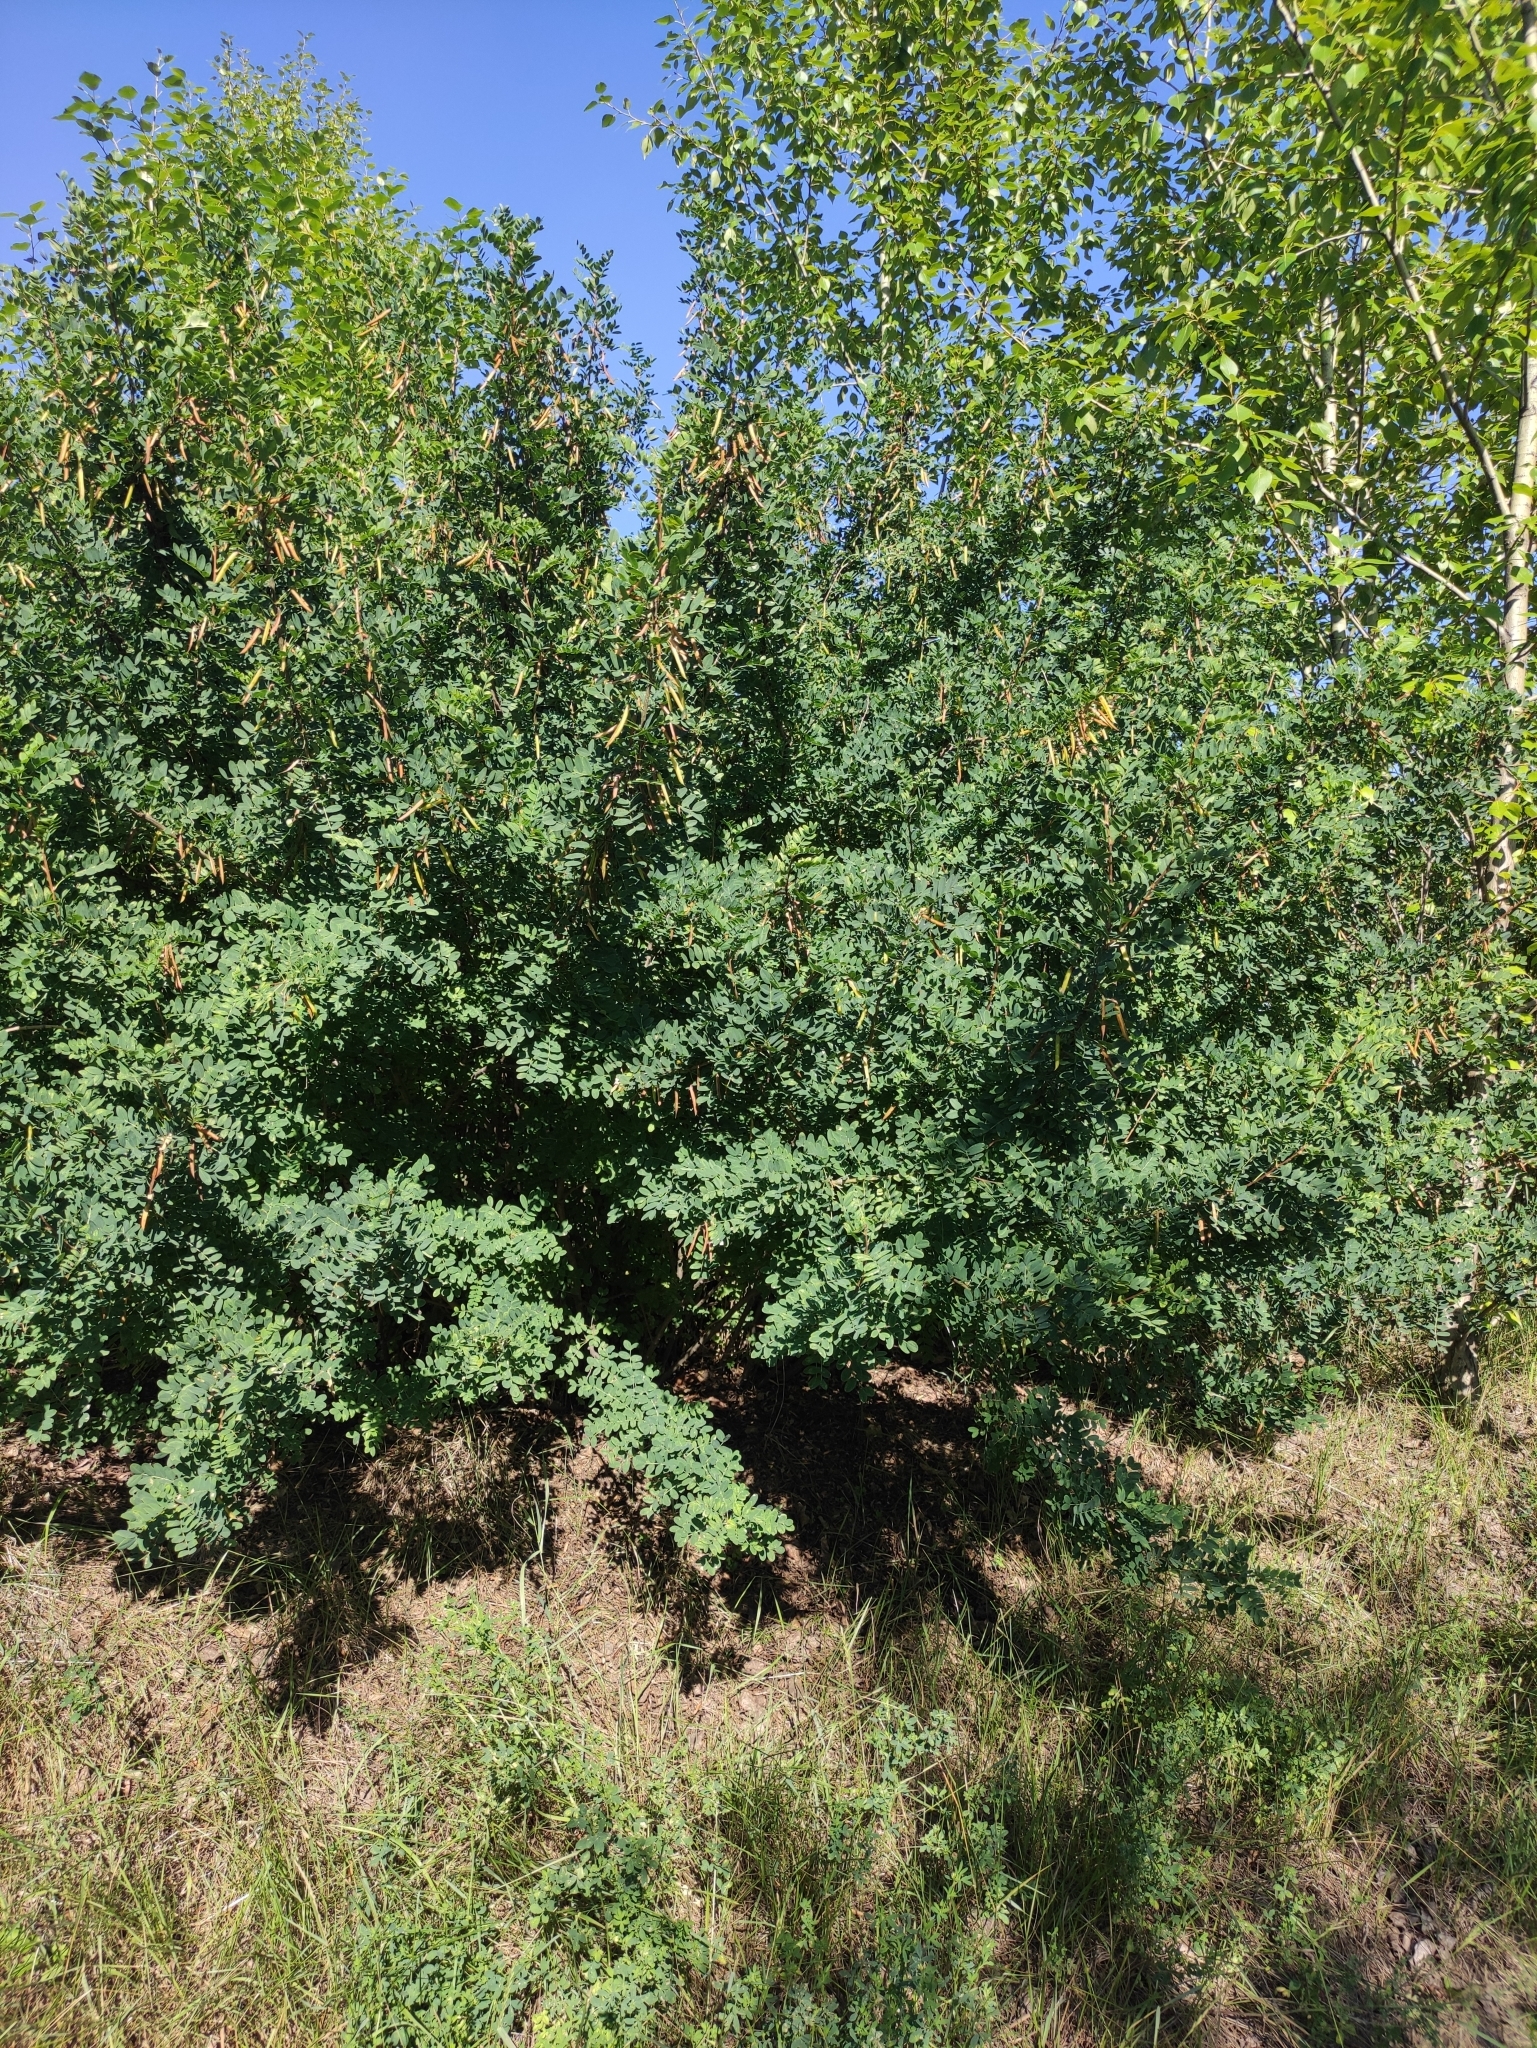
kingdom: Plantae
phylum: Tracheophyta
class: Magnoliopsida
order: Fabales
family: Fabaceae
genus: Caragana
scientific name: Caragana arborescens
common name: Siberian peashrub
